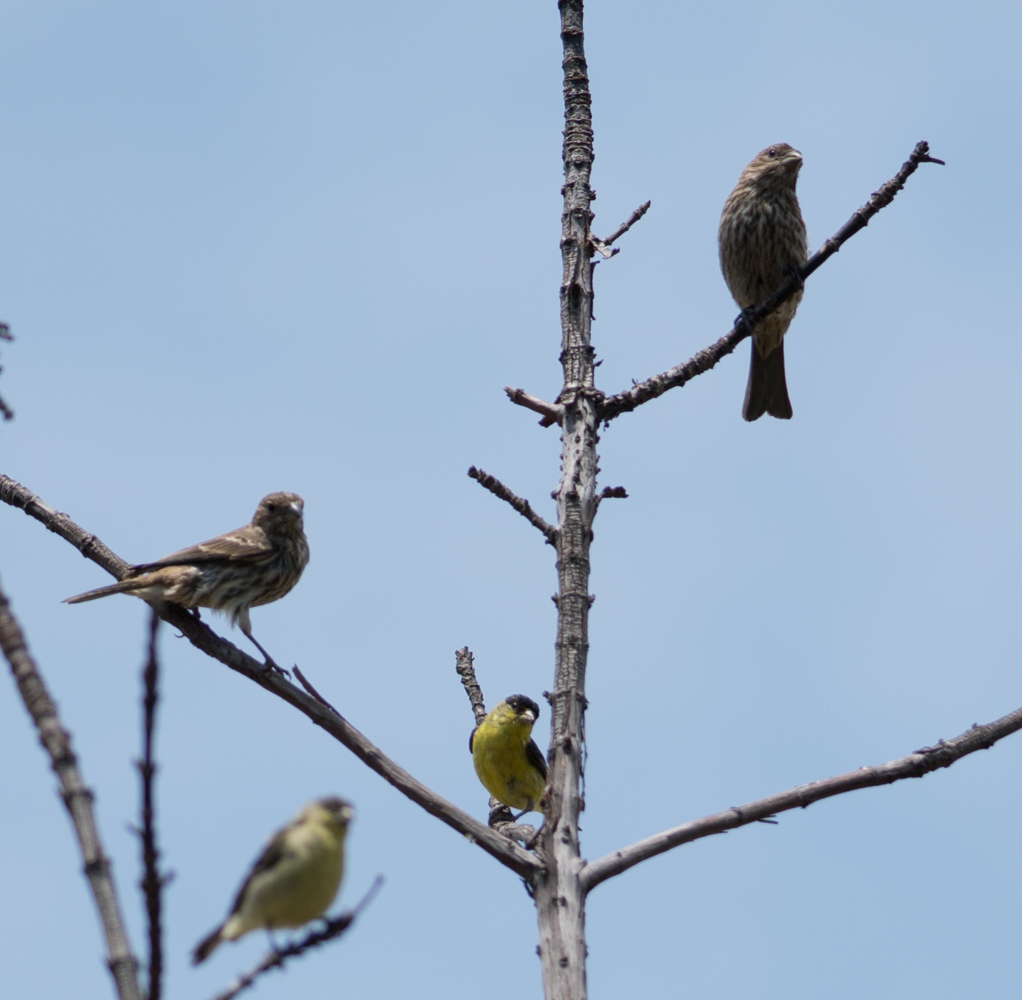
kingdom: Animalia
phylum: Chordata
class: Aves
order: Passeriformes
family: Fringillidae
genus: Spinus
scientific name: Spinus psaltria
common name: Lesser goldfinch
